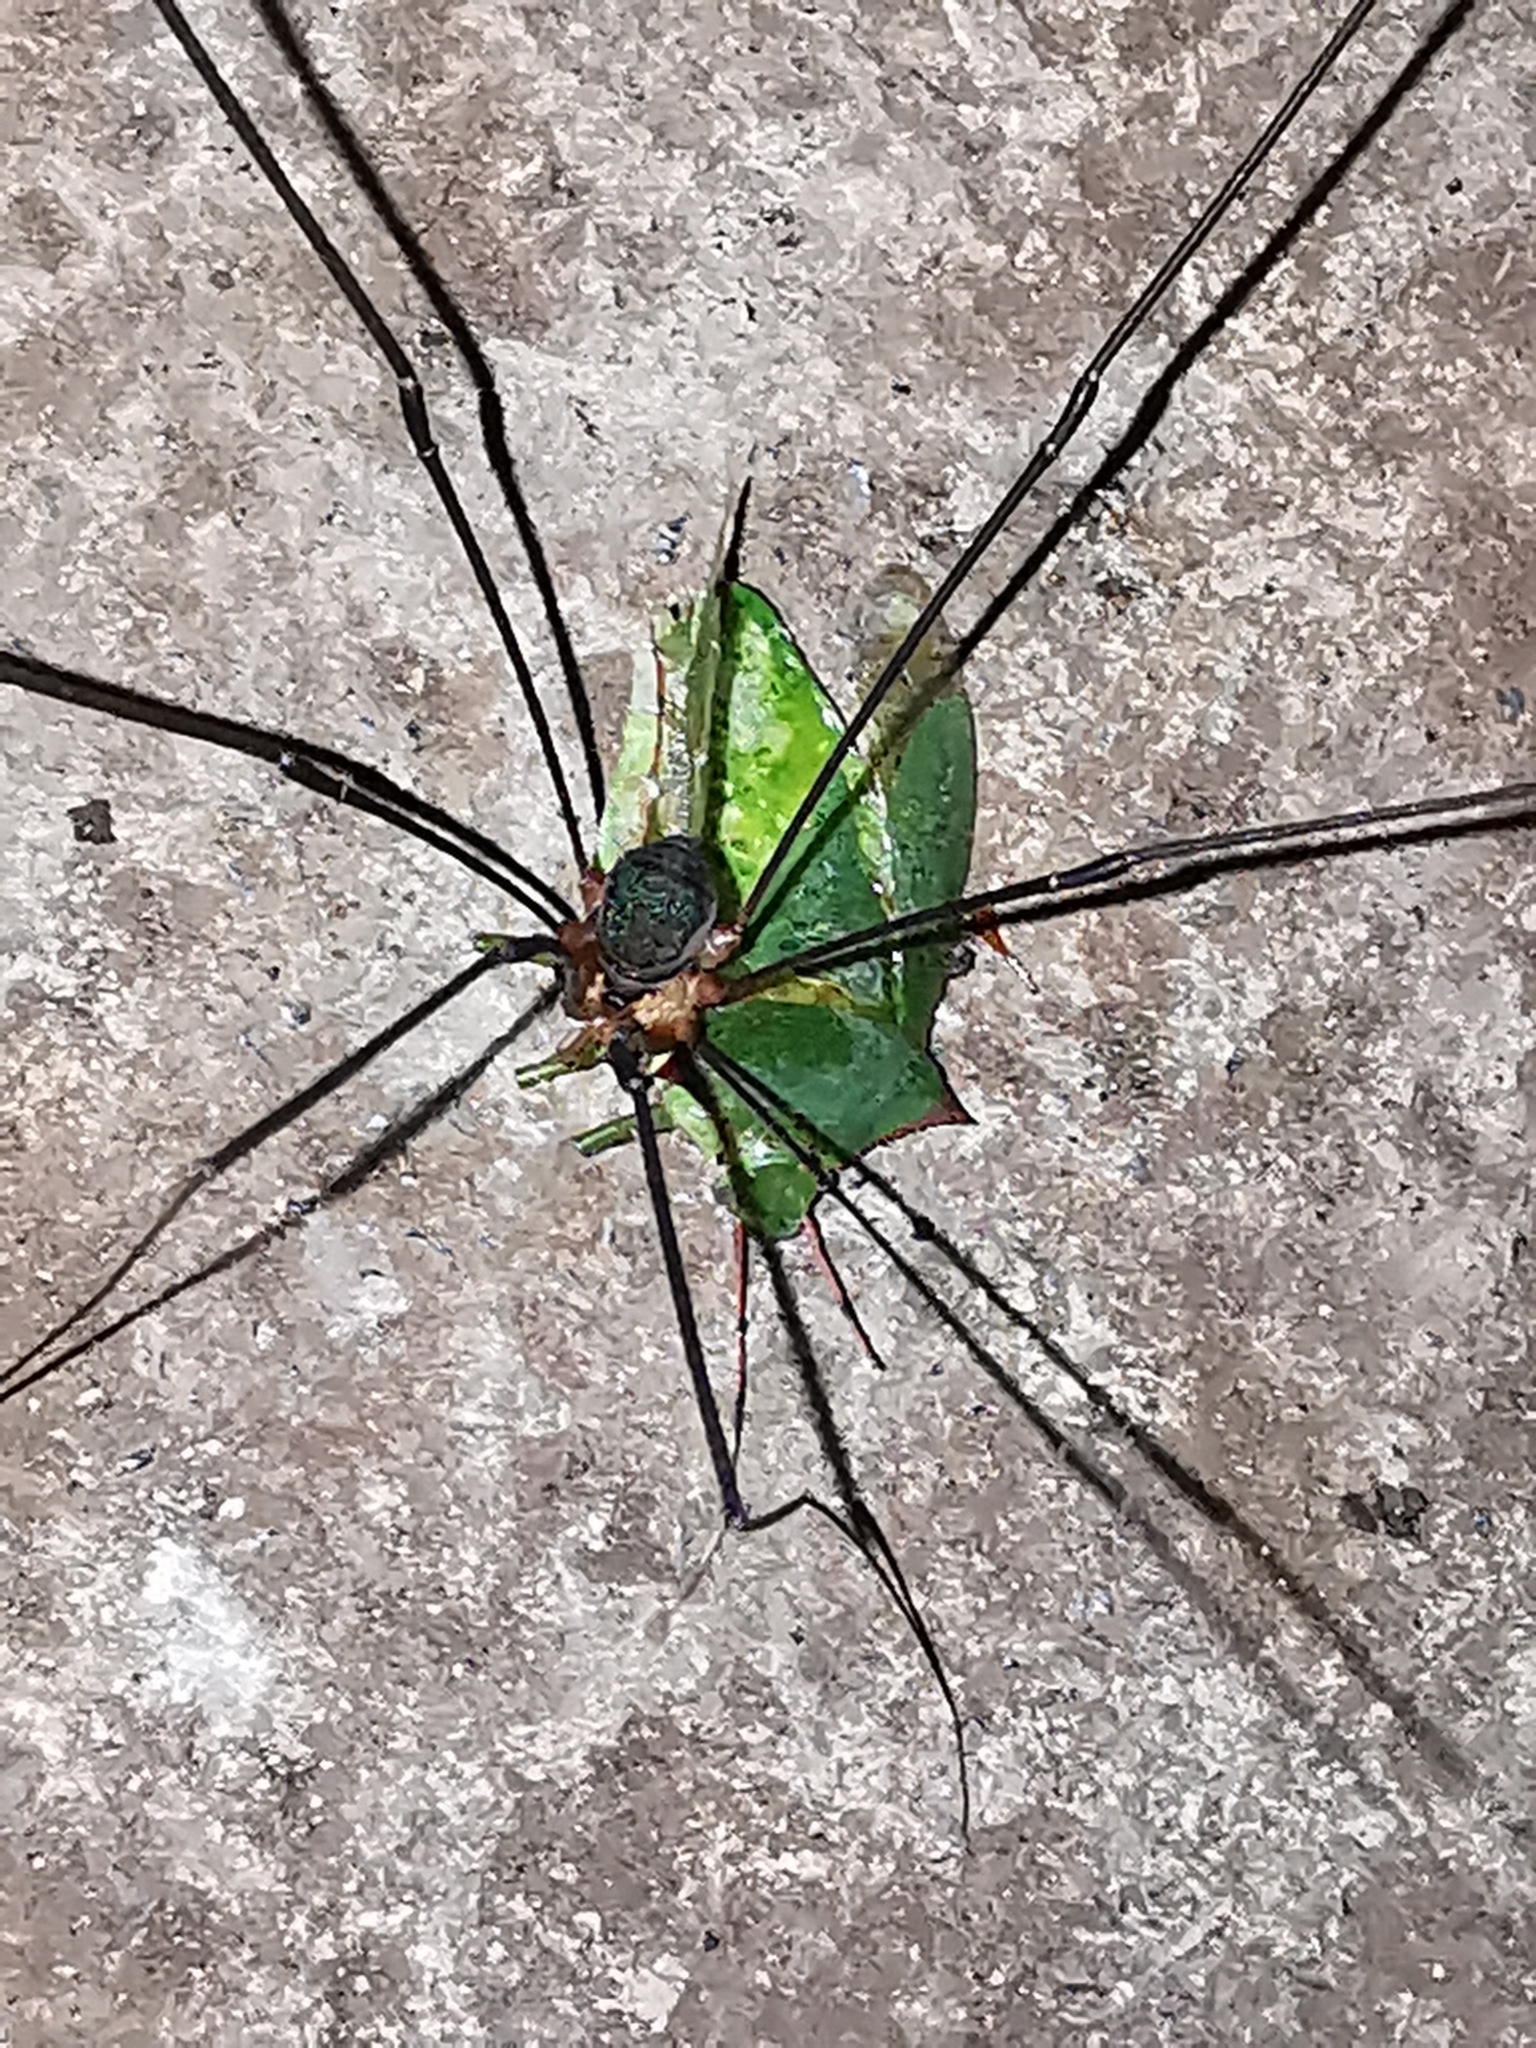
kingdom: Animalia
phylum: Arthropoda
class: Arachnida
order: Opiliones
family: Sclerosomatidae
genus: Leiobunum
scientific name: Leiobunum viridorsum
